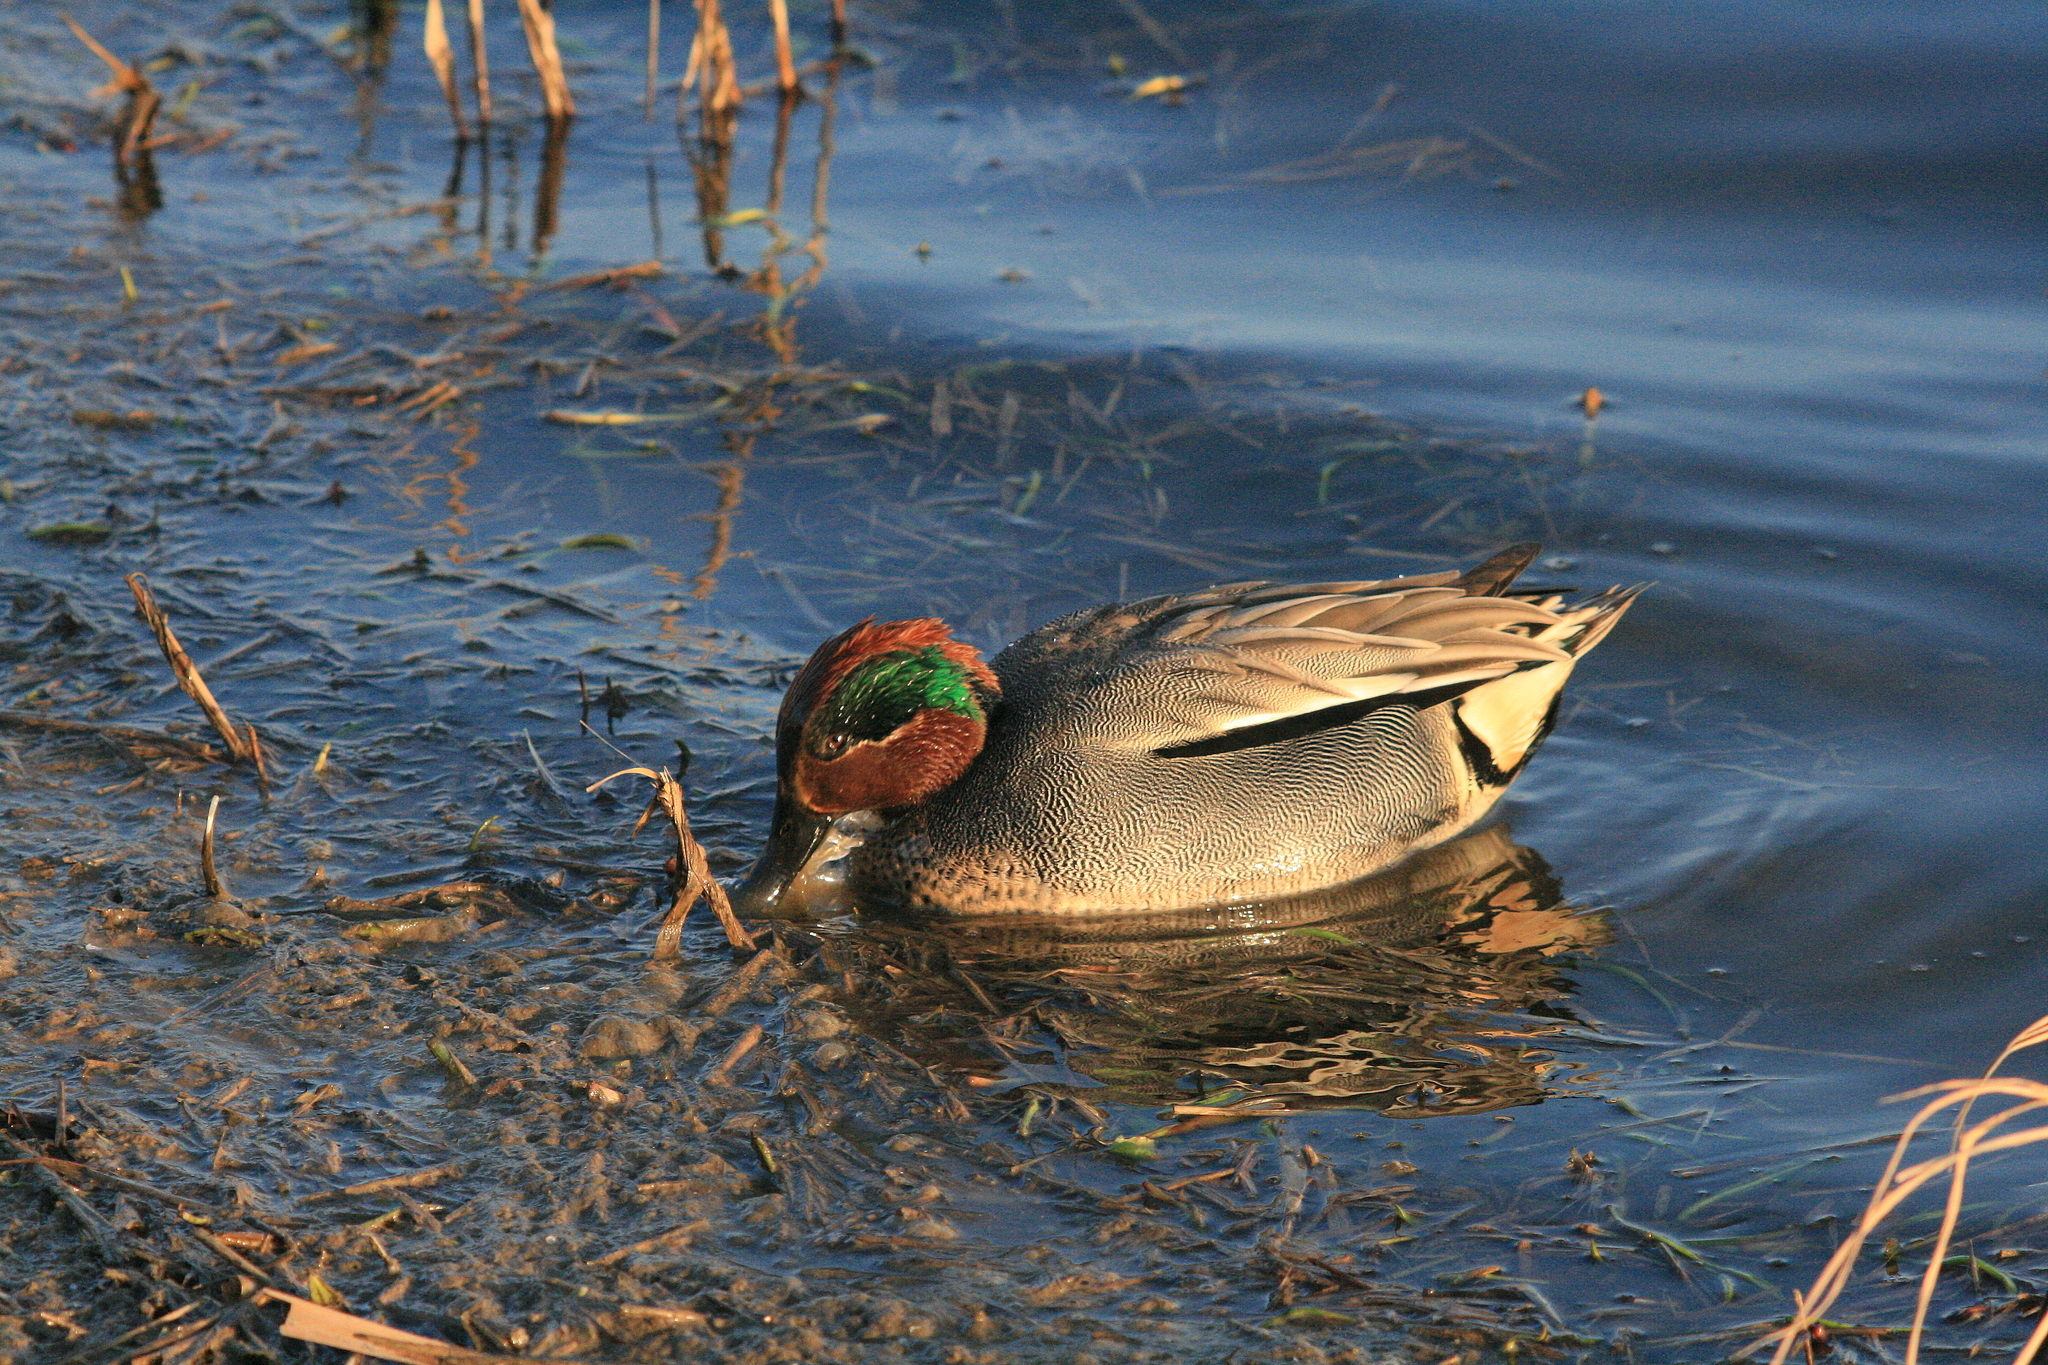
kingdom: Animalia
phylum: Chordata
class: Aves
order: Anseriformes
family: Anatidae
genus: Anas
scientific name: Anas crecca
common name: Eurasian teal
